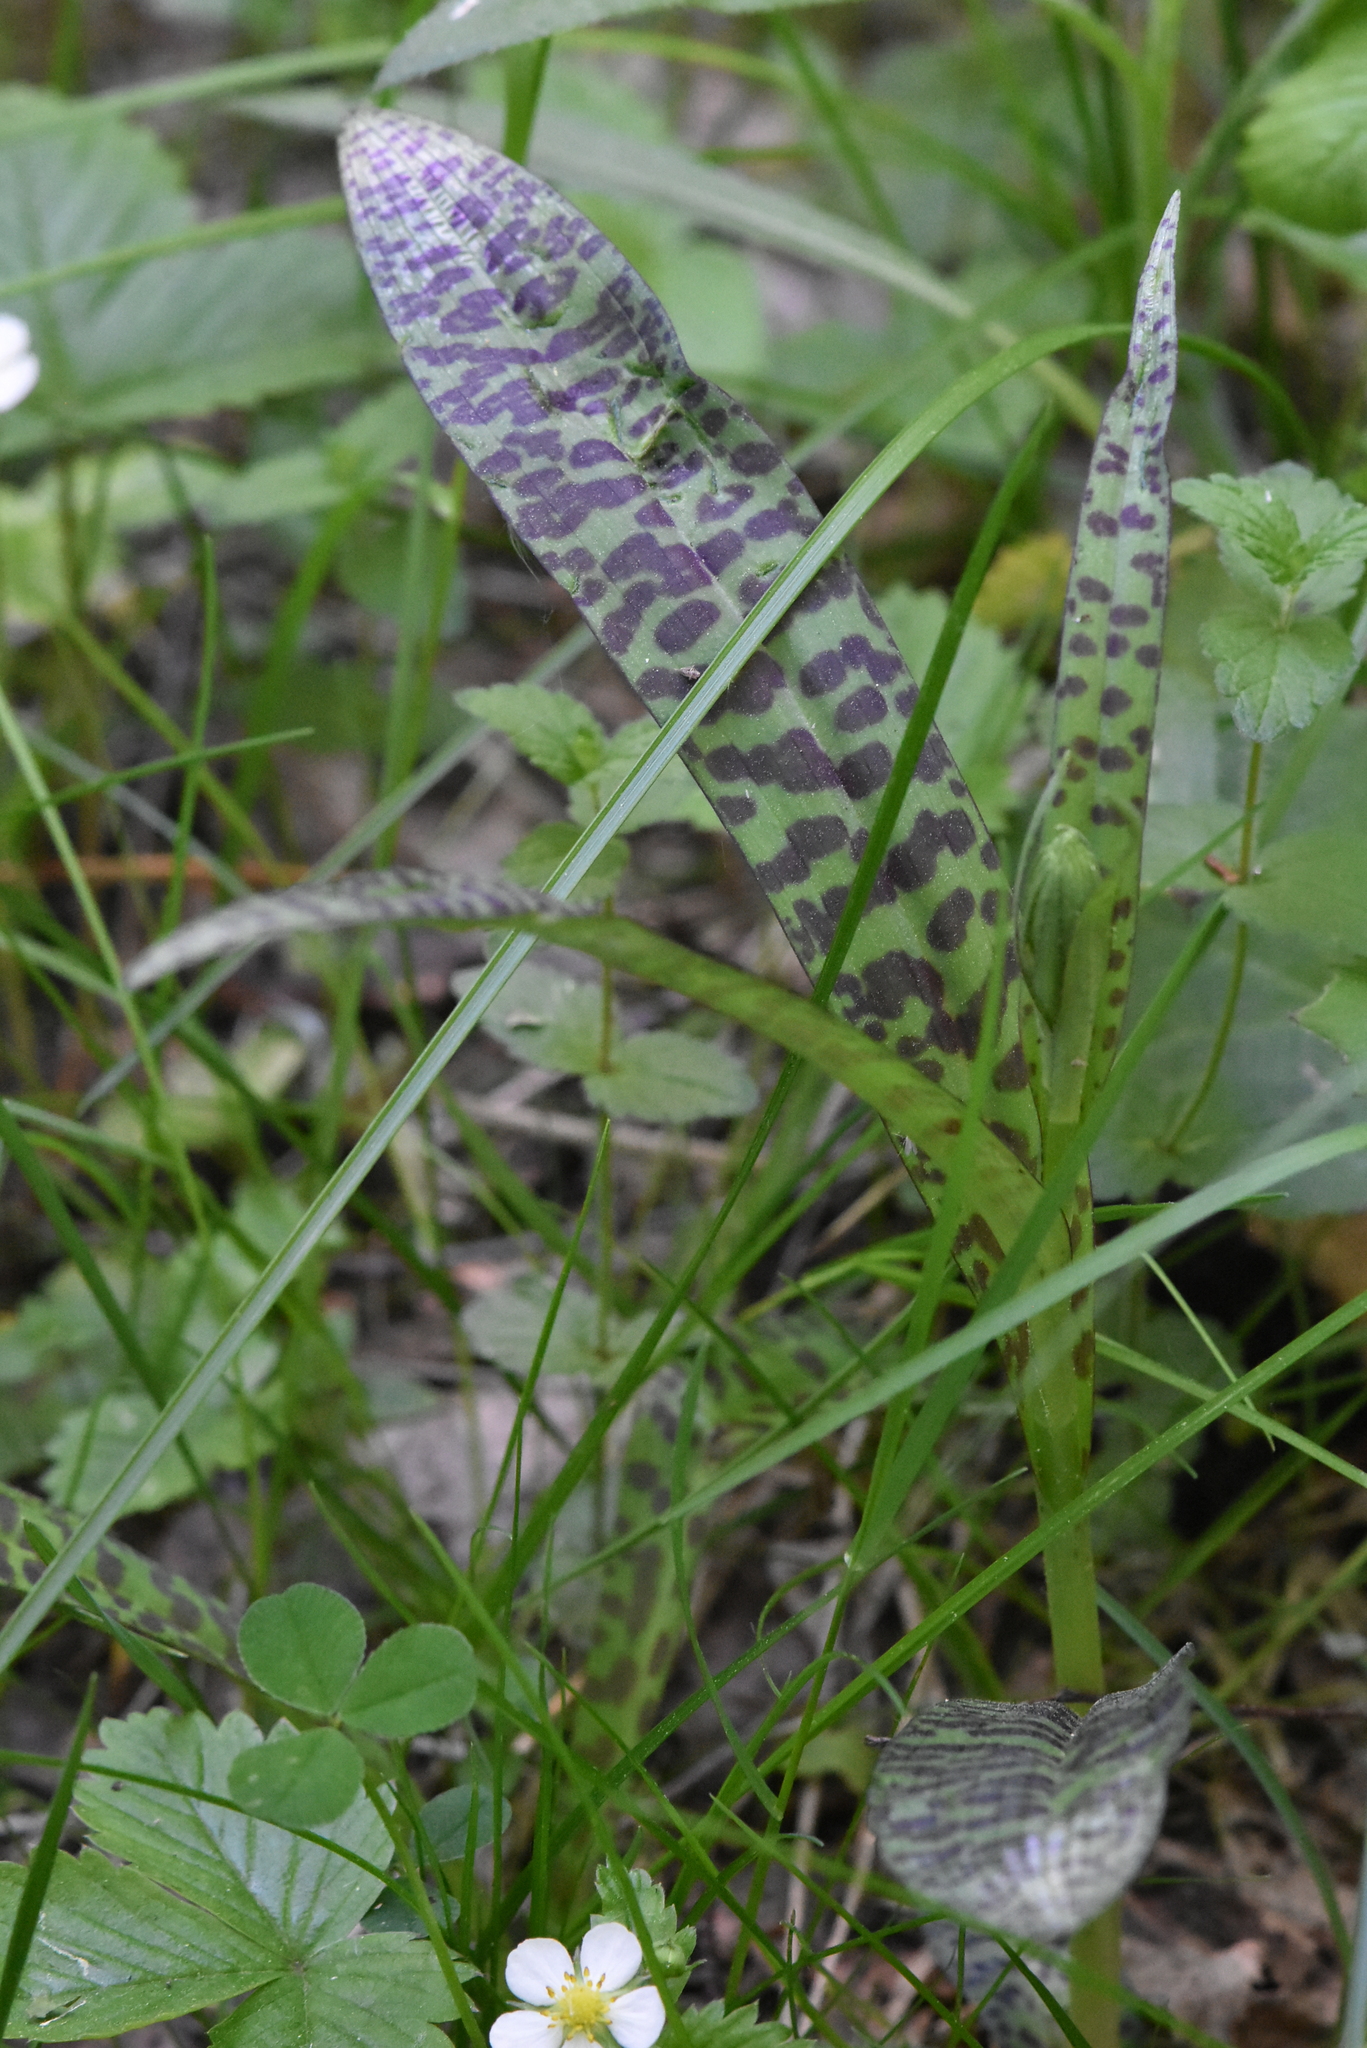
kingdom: Plantae
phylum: Tracheophyta
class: Liliopsida
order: Asparagales
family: Orchidaceae
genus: Dactylorhiza
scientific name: Dactylorhiza maculata
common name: Heath spotted-orchid
